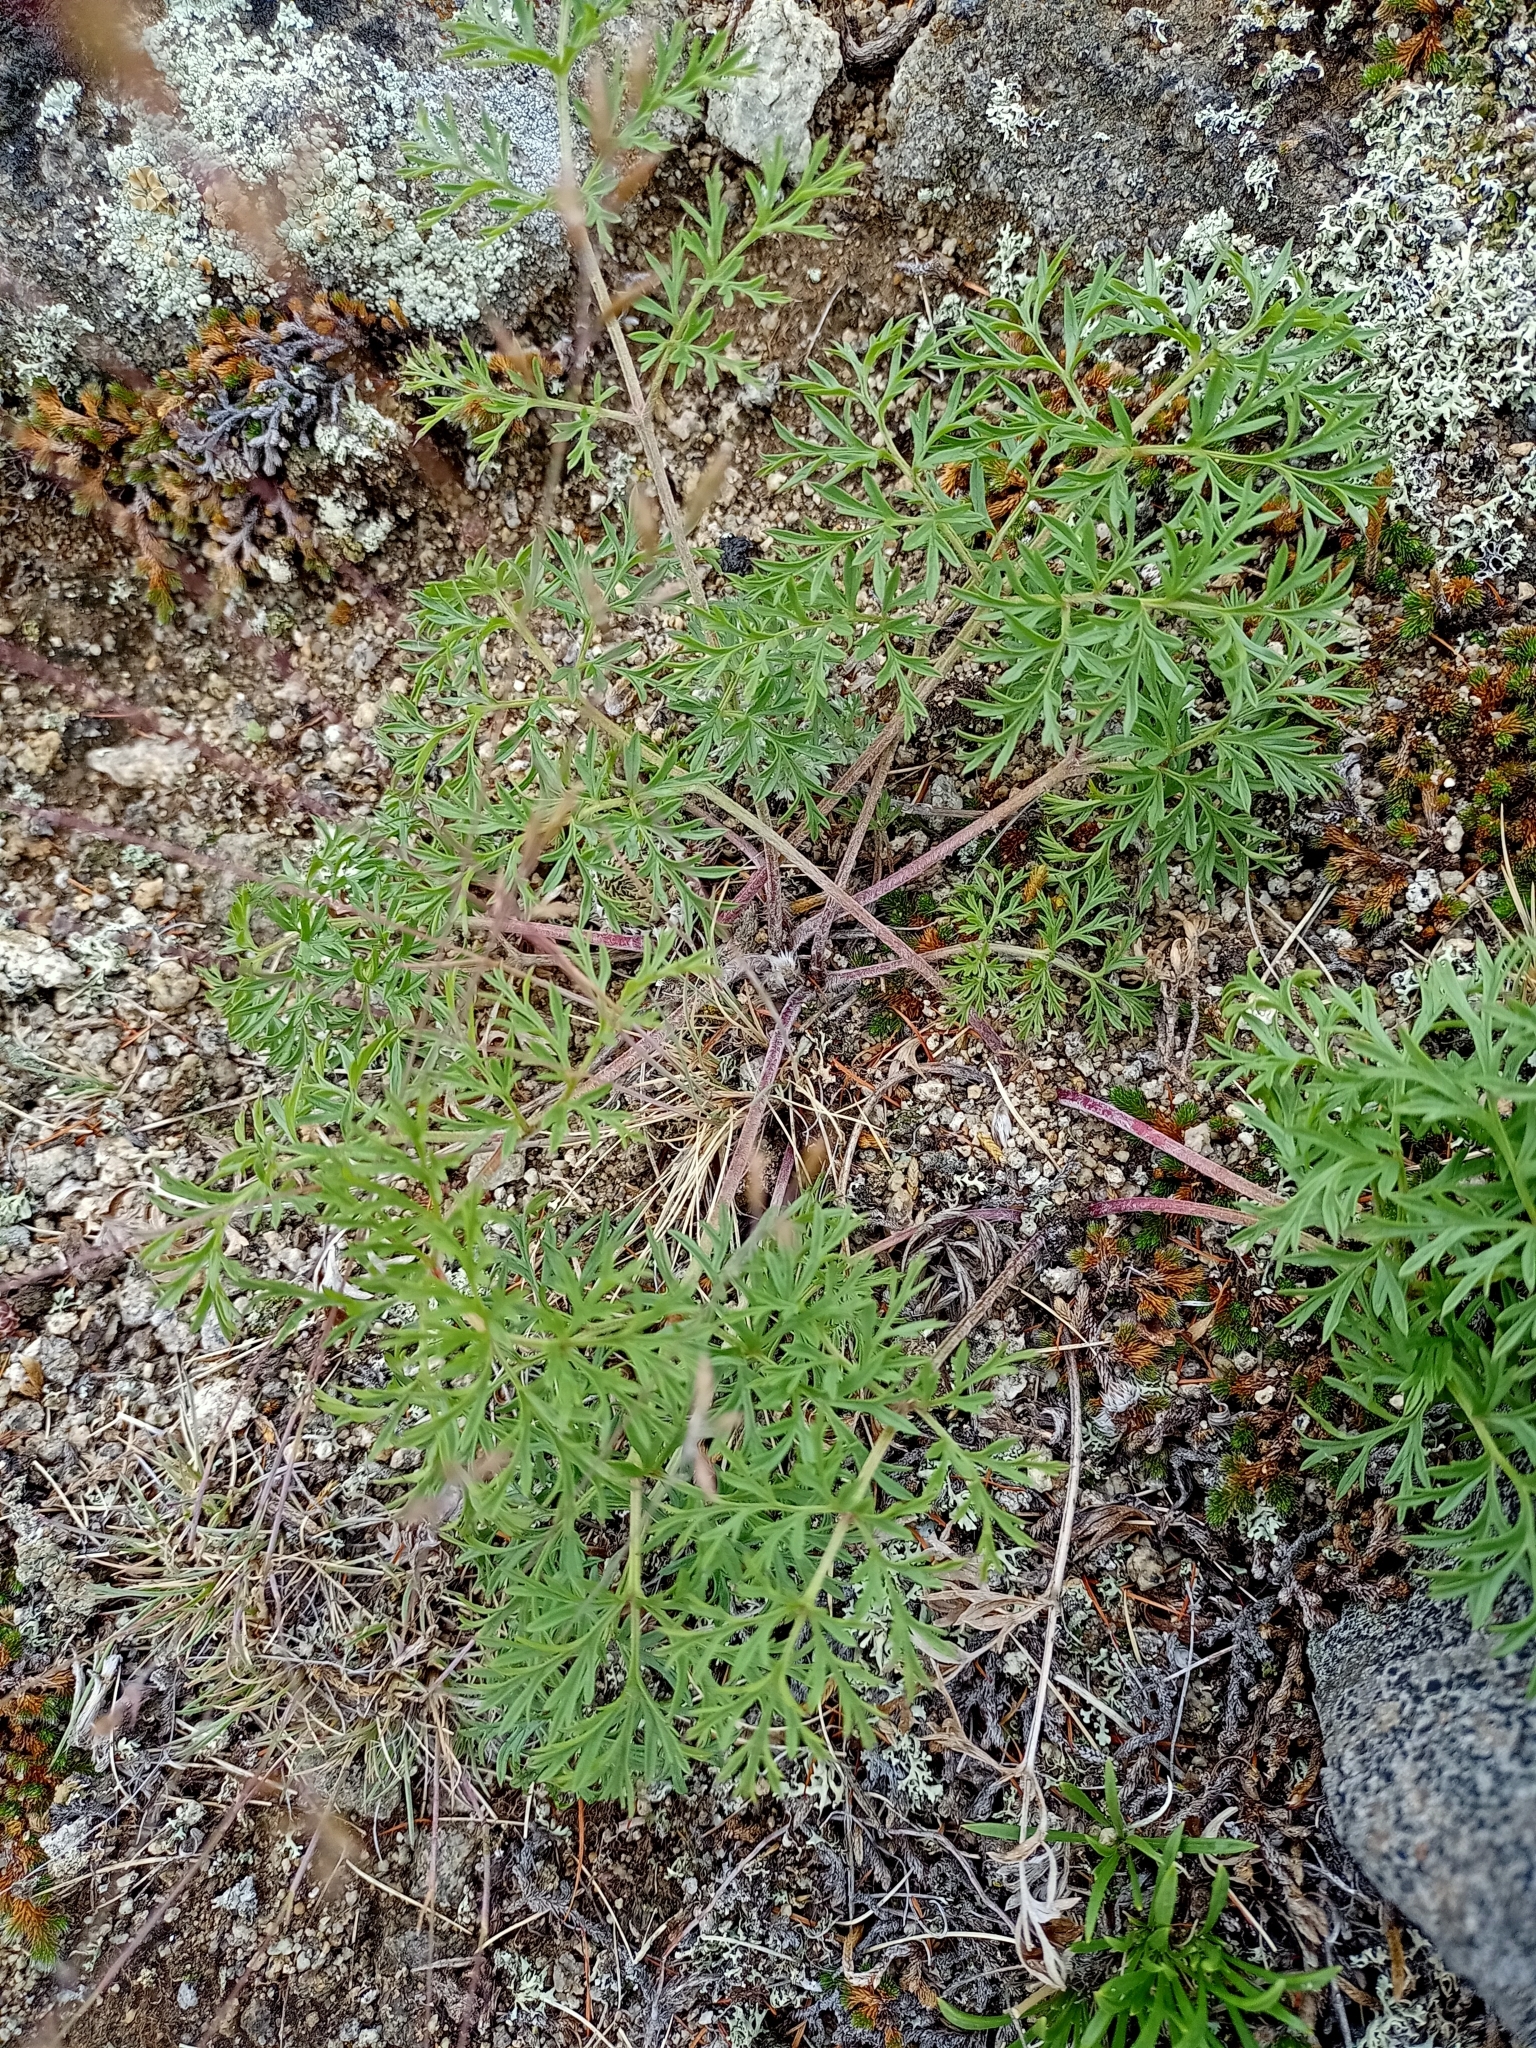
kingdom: Plantae
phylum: Tracheophyta
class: Magnoliopsida
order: Ranunculales
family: Ranunculaceae
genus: Pulsatilla
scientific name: Pulsatilla turczaninovii
